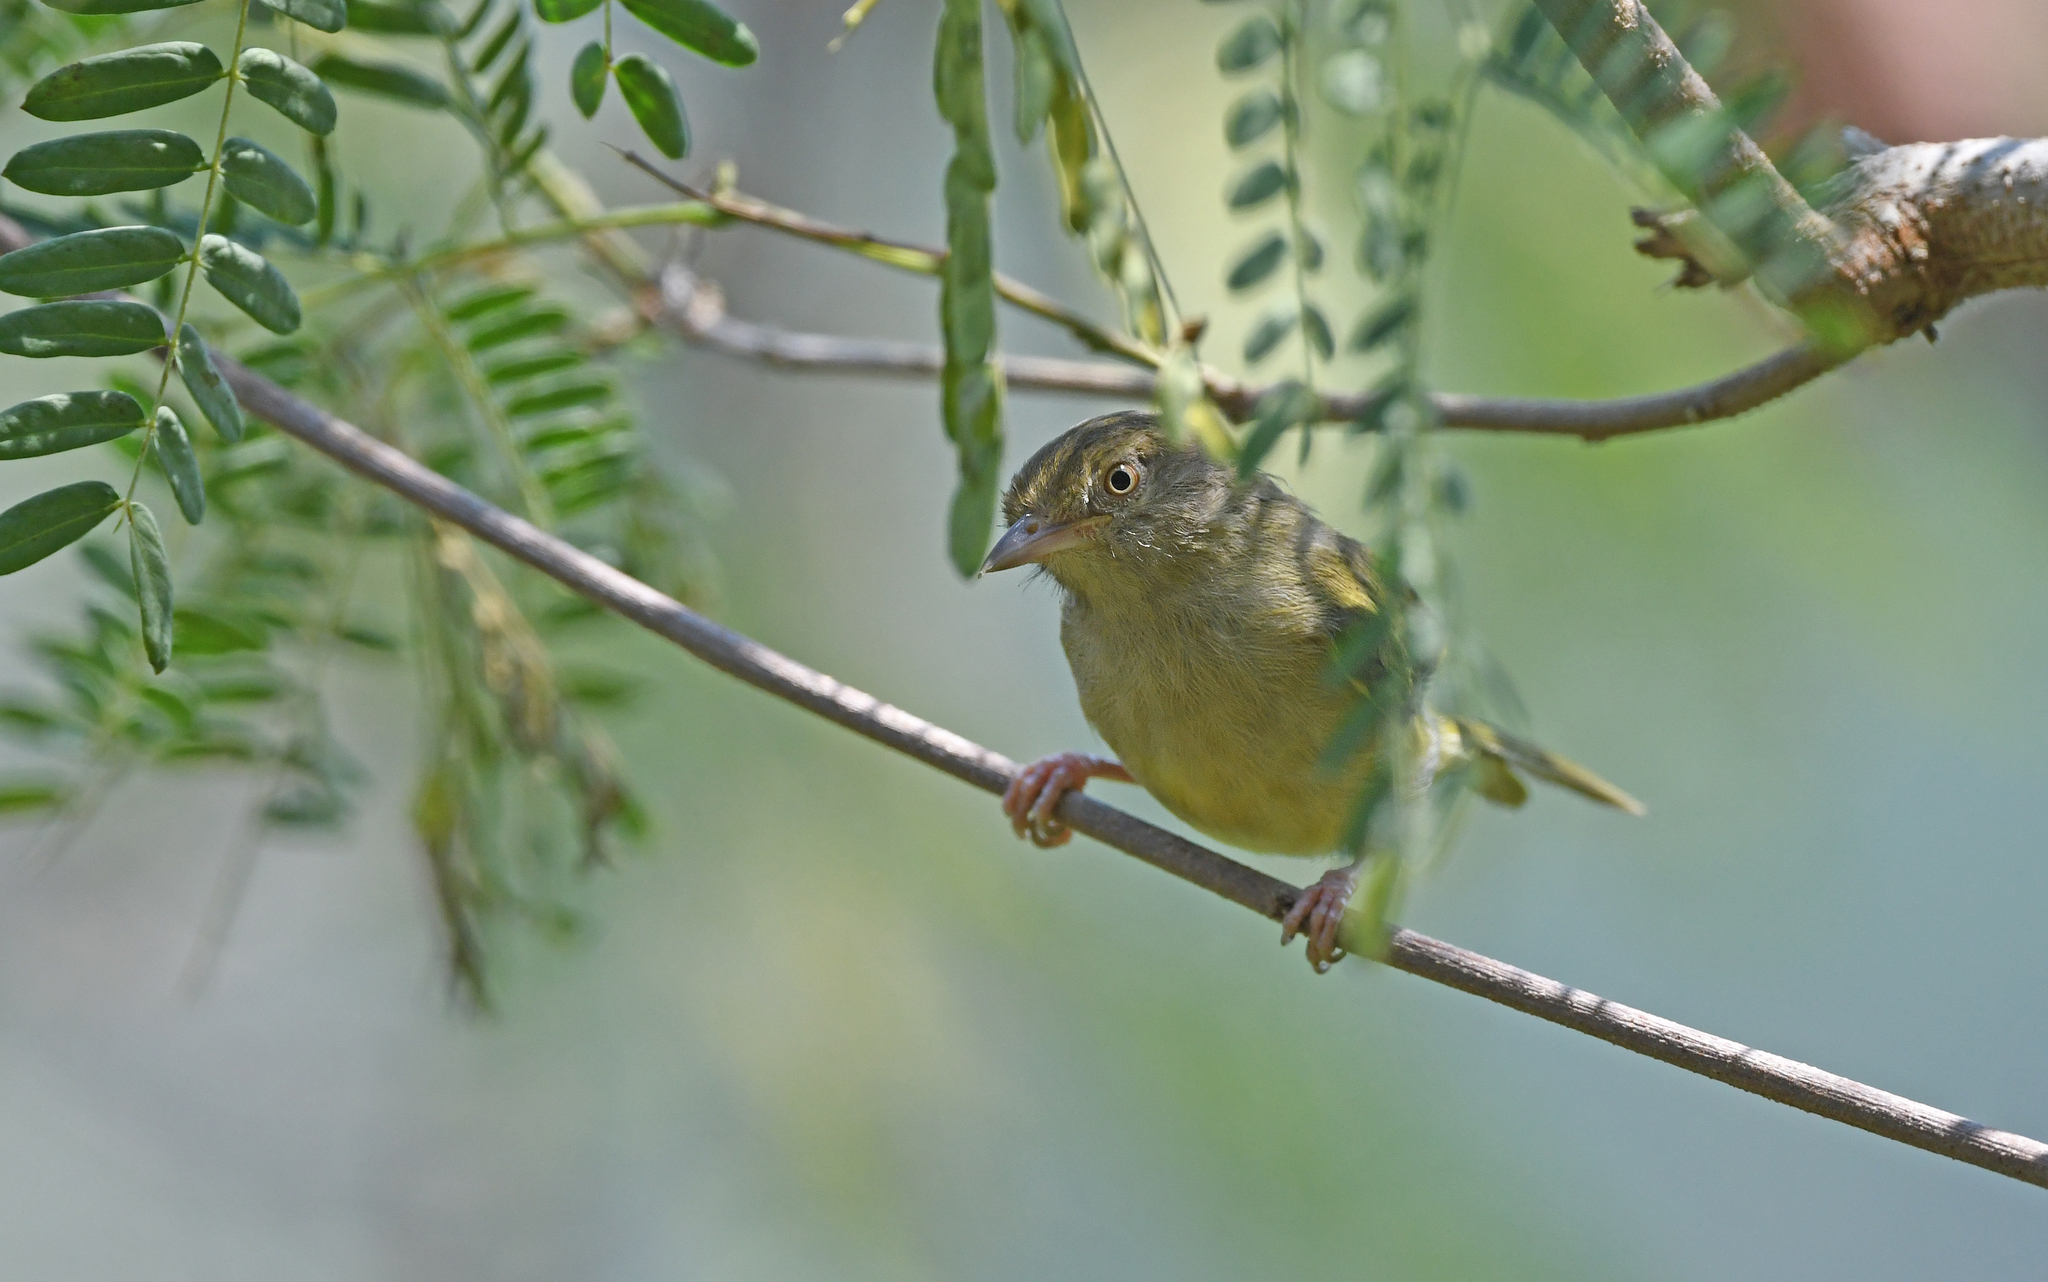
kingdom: Animalia
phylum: Chordata
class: Aves
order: Passeriformes
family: Vireonidae
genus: Hylophilus
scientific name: Hylophilus flavipes
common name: Scrub greenlet
